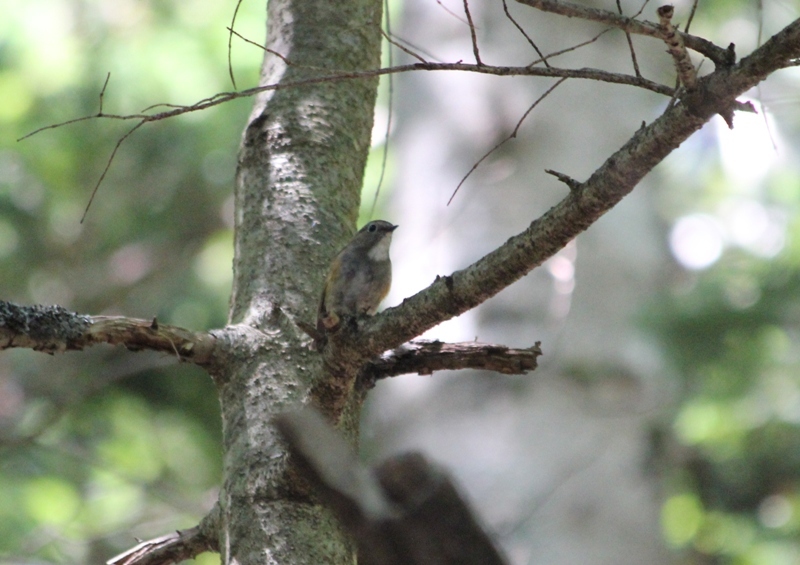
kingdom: Animalia
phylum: Chordata
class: Aves
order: Passeriformes
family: Muscicapidae
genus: Tarsiger
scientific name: Tarsiger cyanurus
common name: Red-flanked bluetail
